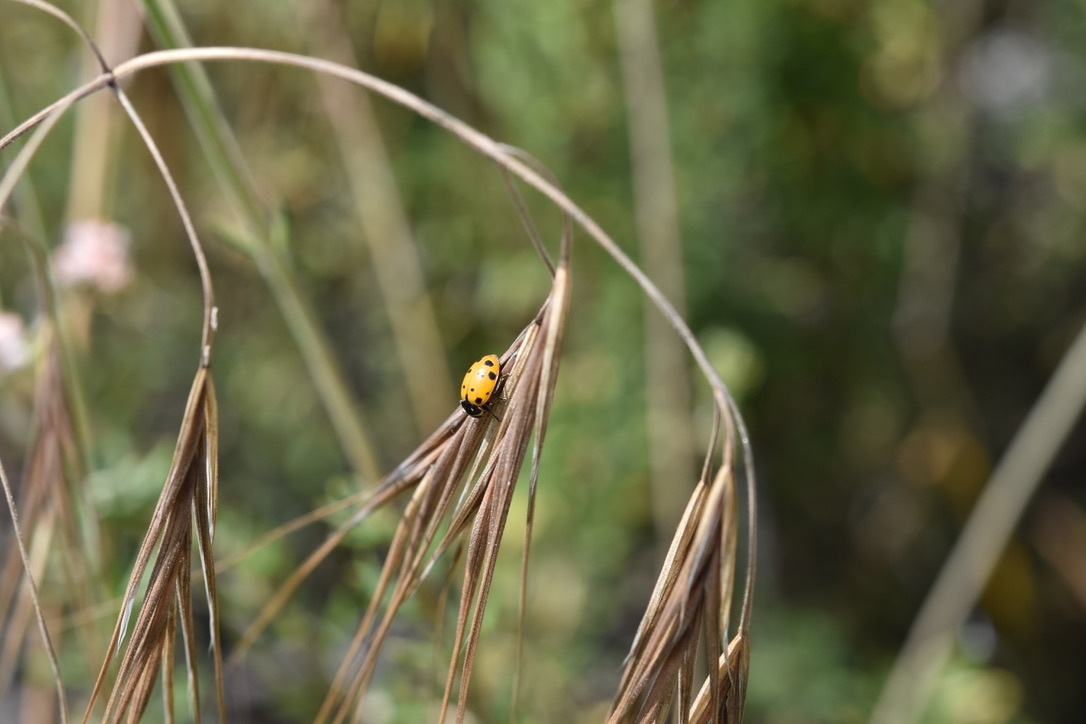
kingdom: Animalia
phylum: Arthropoda
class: Insecta
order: Coleoptera
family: Coccinellidae
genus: Hippodamia
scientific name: Hippodamia convergens
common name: Convergent lady beetle
